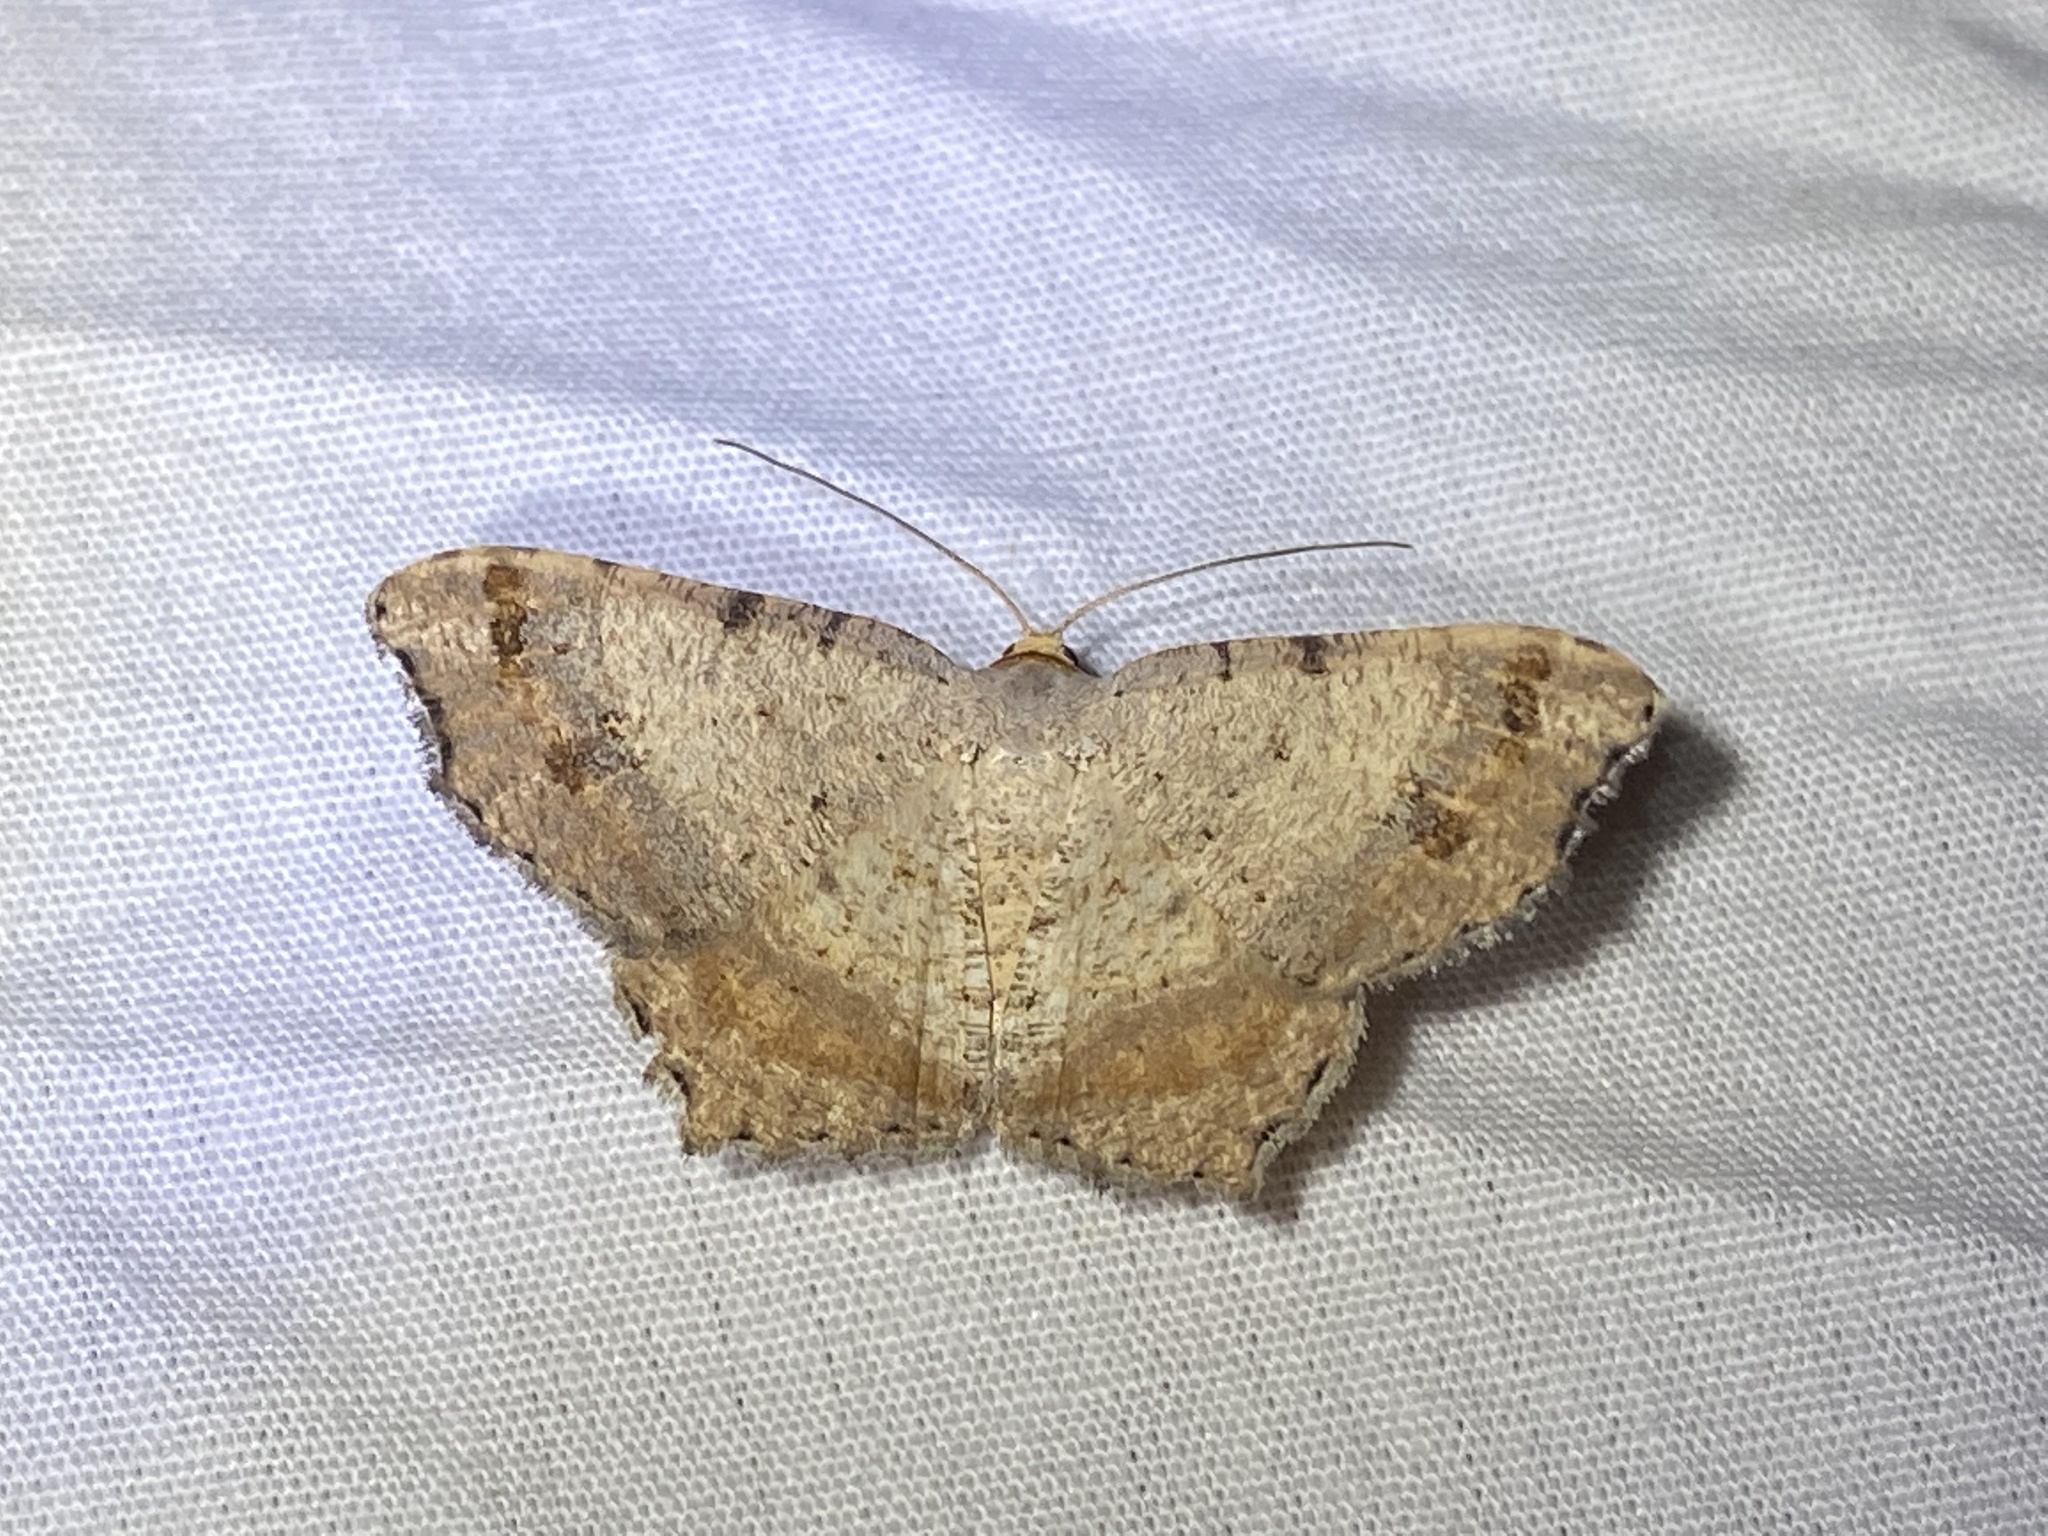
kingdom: Animalia
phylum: Arthropoda
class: Insecta
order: Lepidoptera
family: Geometridae
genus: Macaria
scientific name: Macaria bicolorata
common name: Dingy angle
